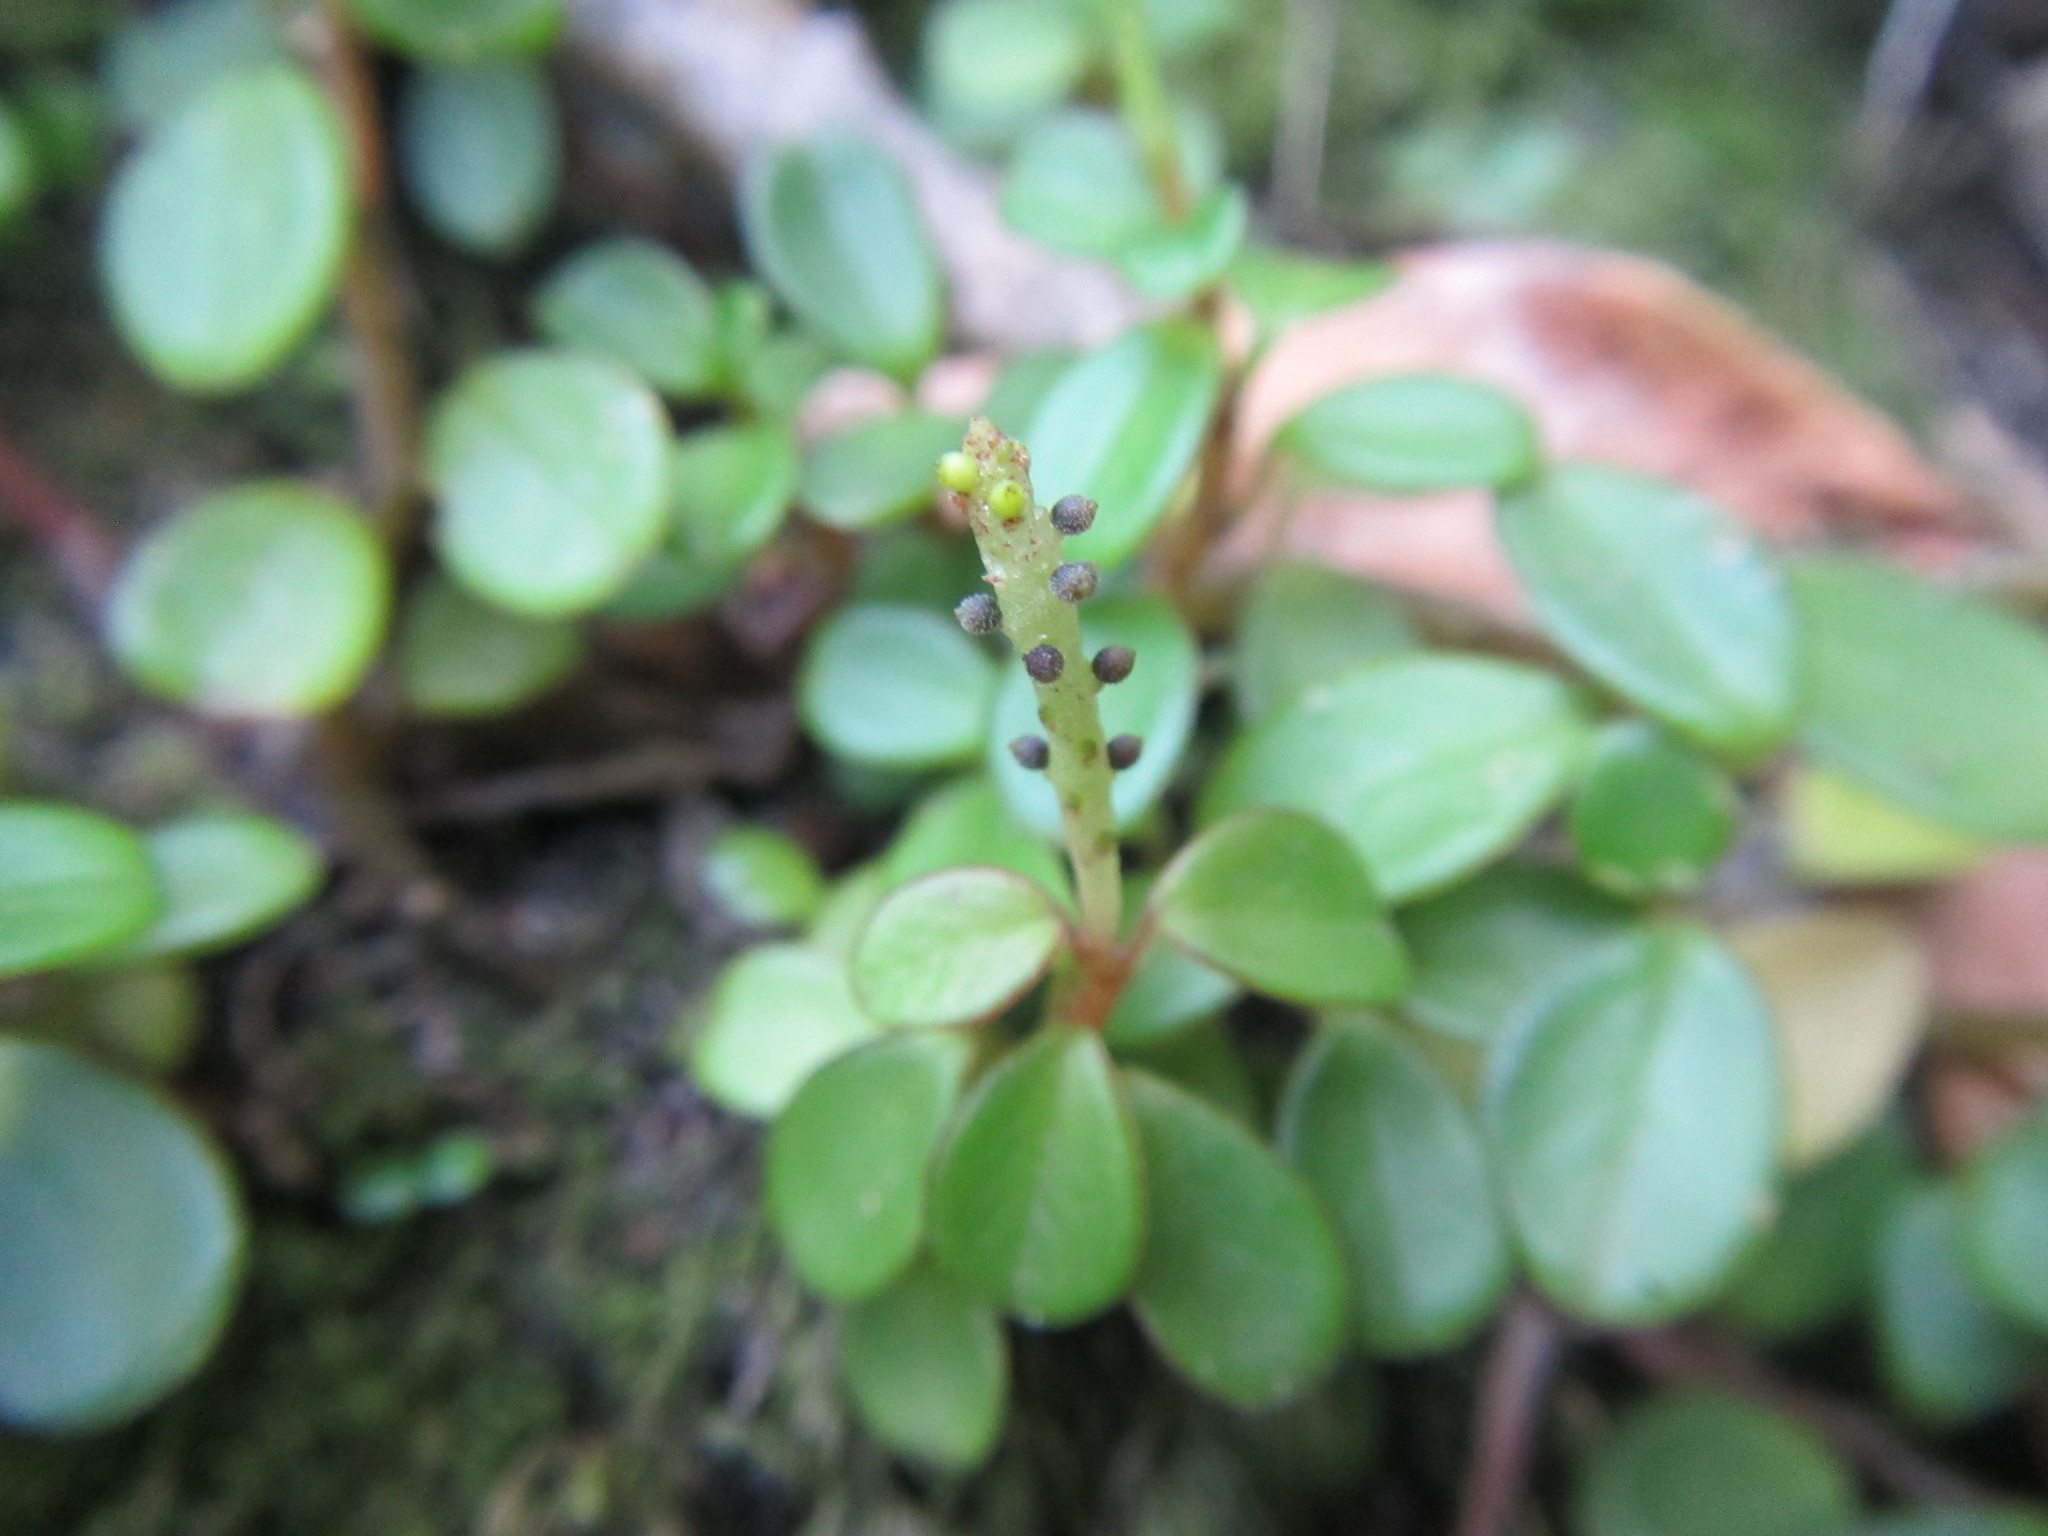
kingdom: Plantae
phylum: Tracheophyta
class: Magnoliopsida
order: Piperales
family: Piperaceae
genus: Peperomia
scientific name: Peperomia retusa
